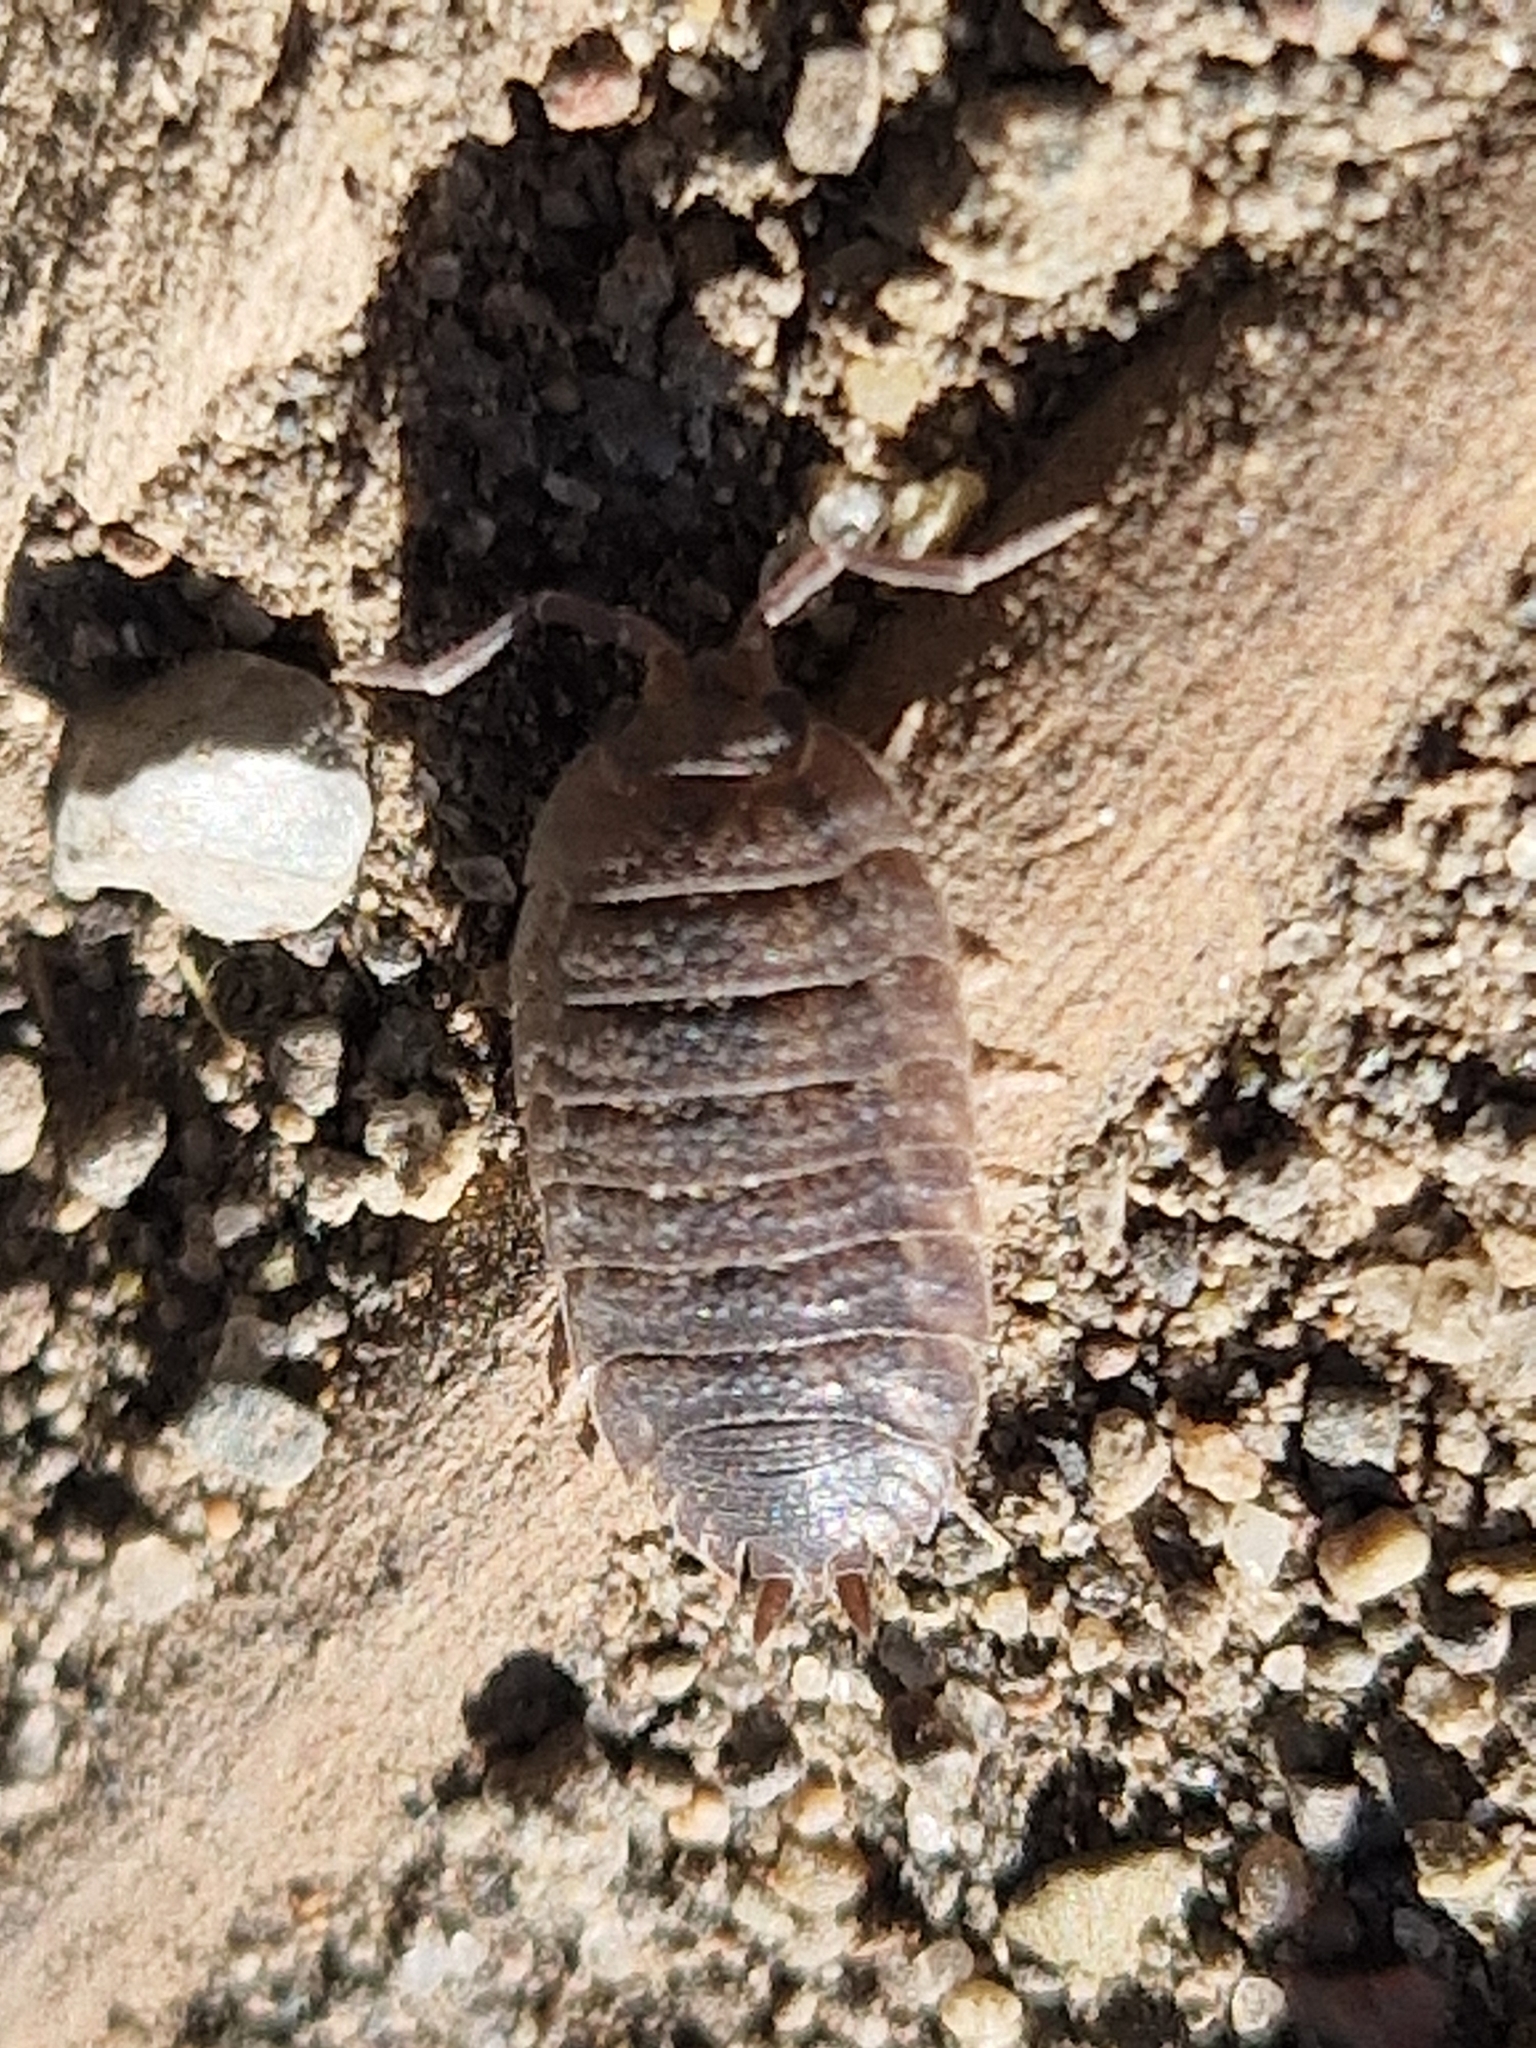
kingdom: Animalia
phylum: Arthropoda
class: Malacostraca
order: Isopoda
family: Porcellionidae
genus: Porcellio
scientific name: Porcellio scaber
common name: Common rough woodlouse
